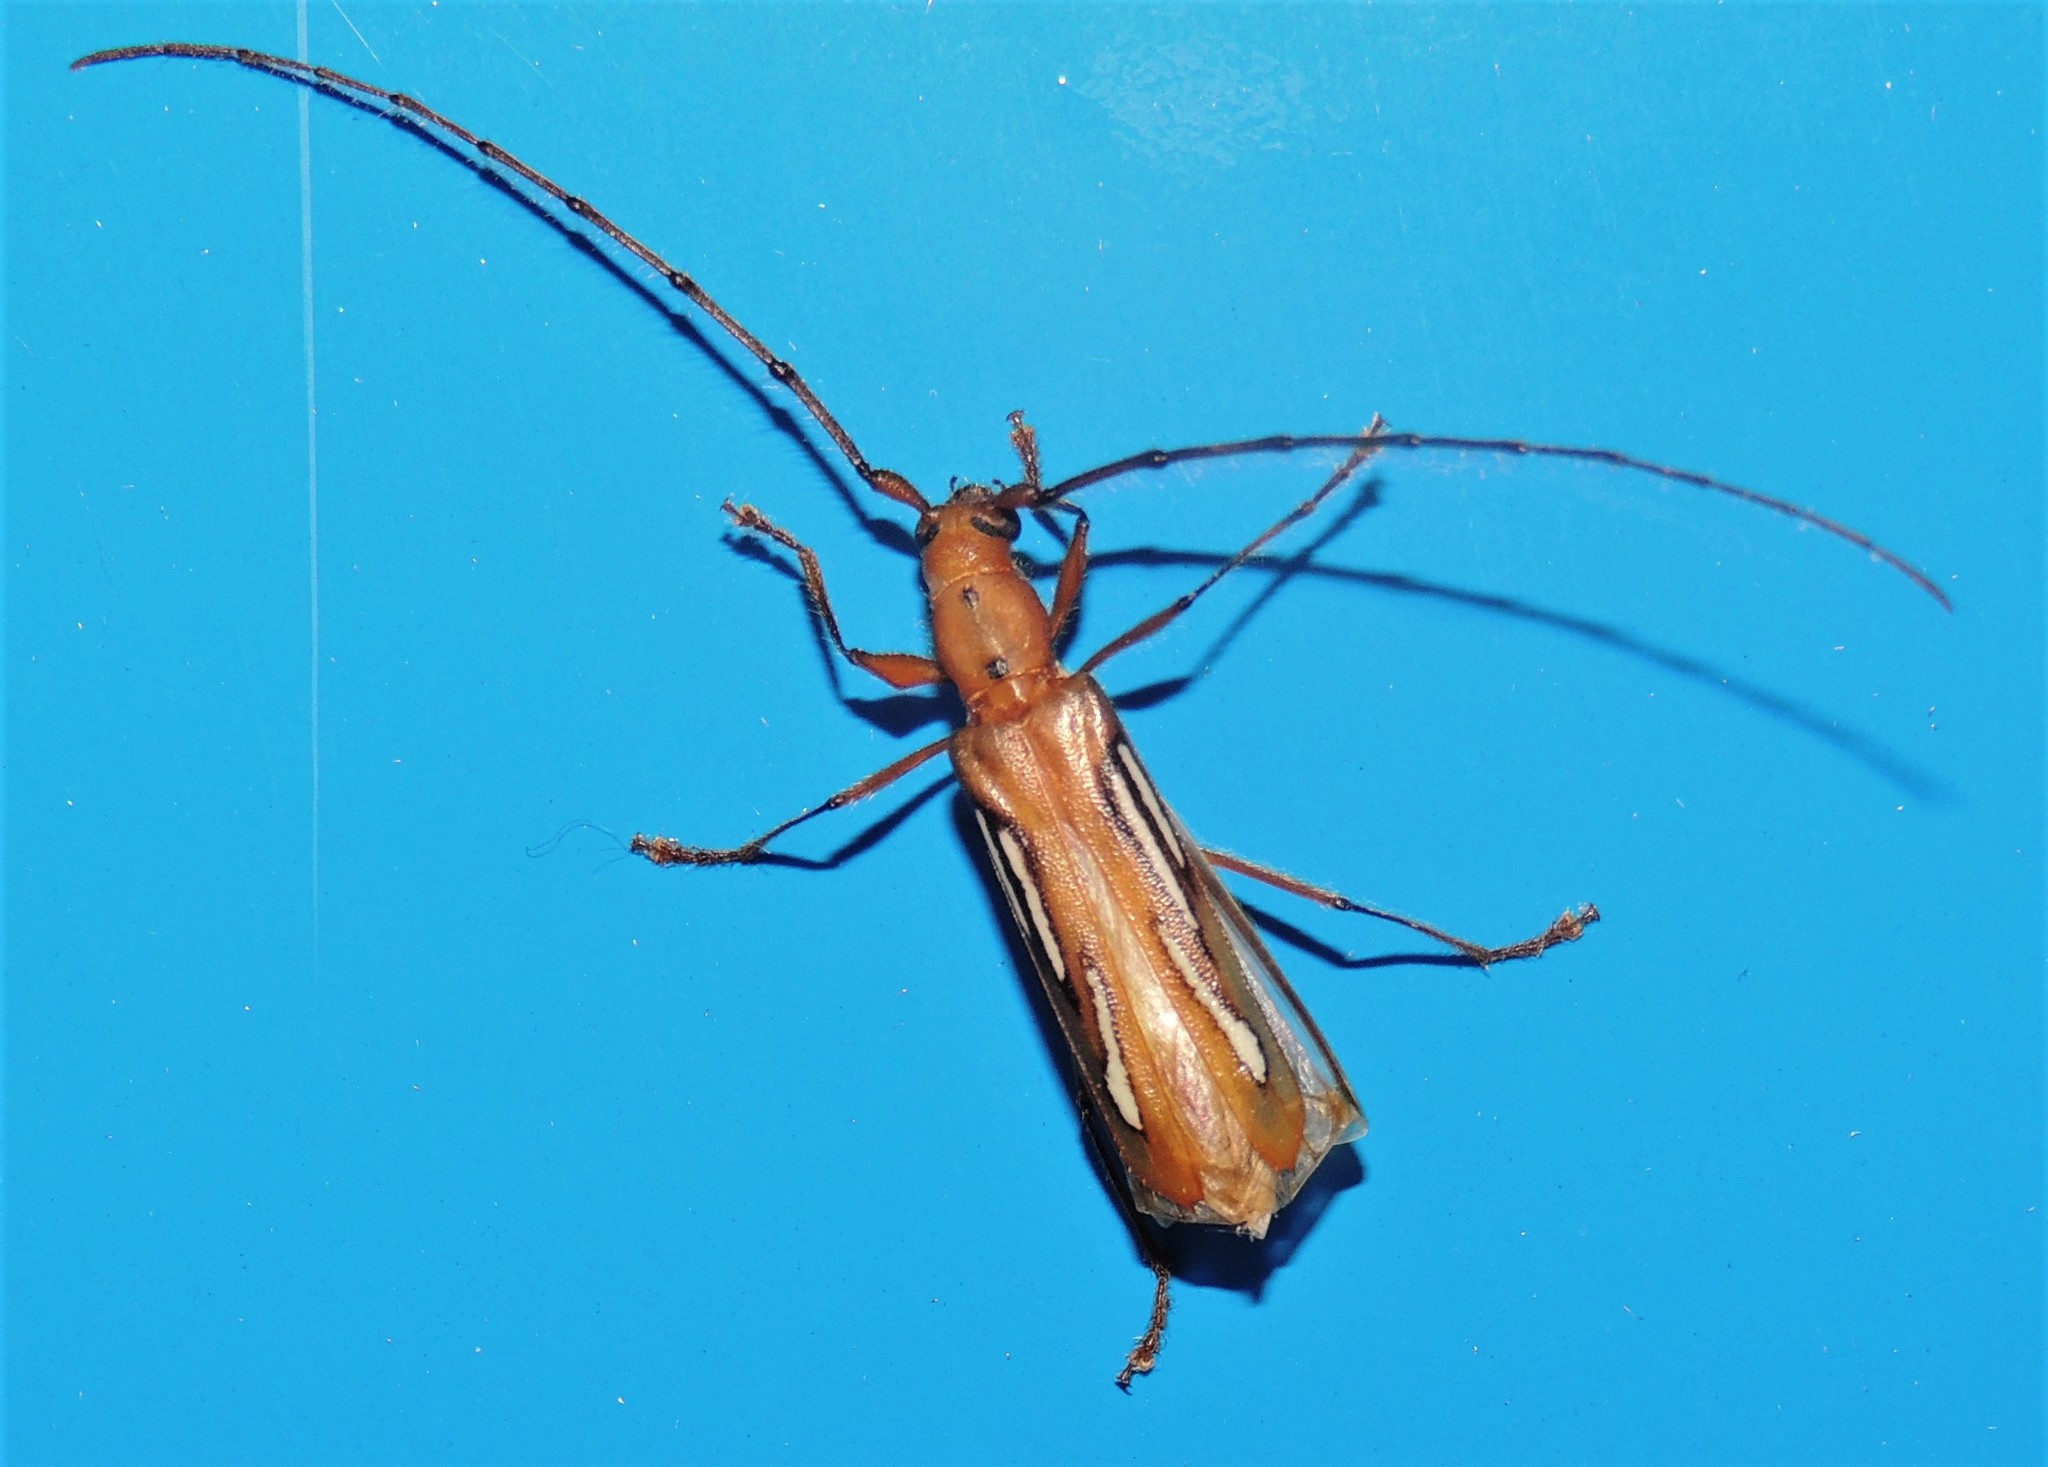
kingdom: Animalia
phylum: Arthropoda
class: Insecta
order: Coleoptera
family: Cerambycidae
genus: Eurymerus
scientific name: Eurymerus eburioides
